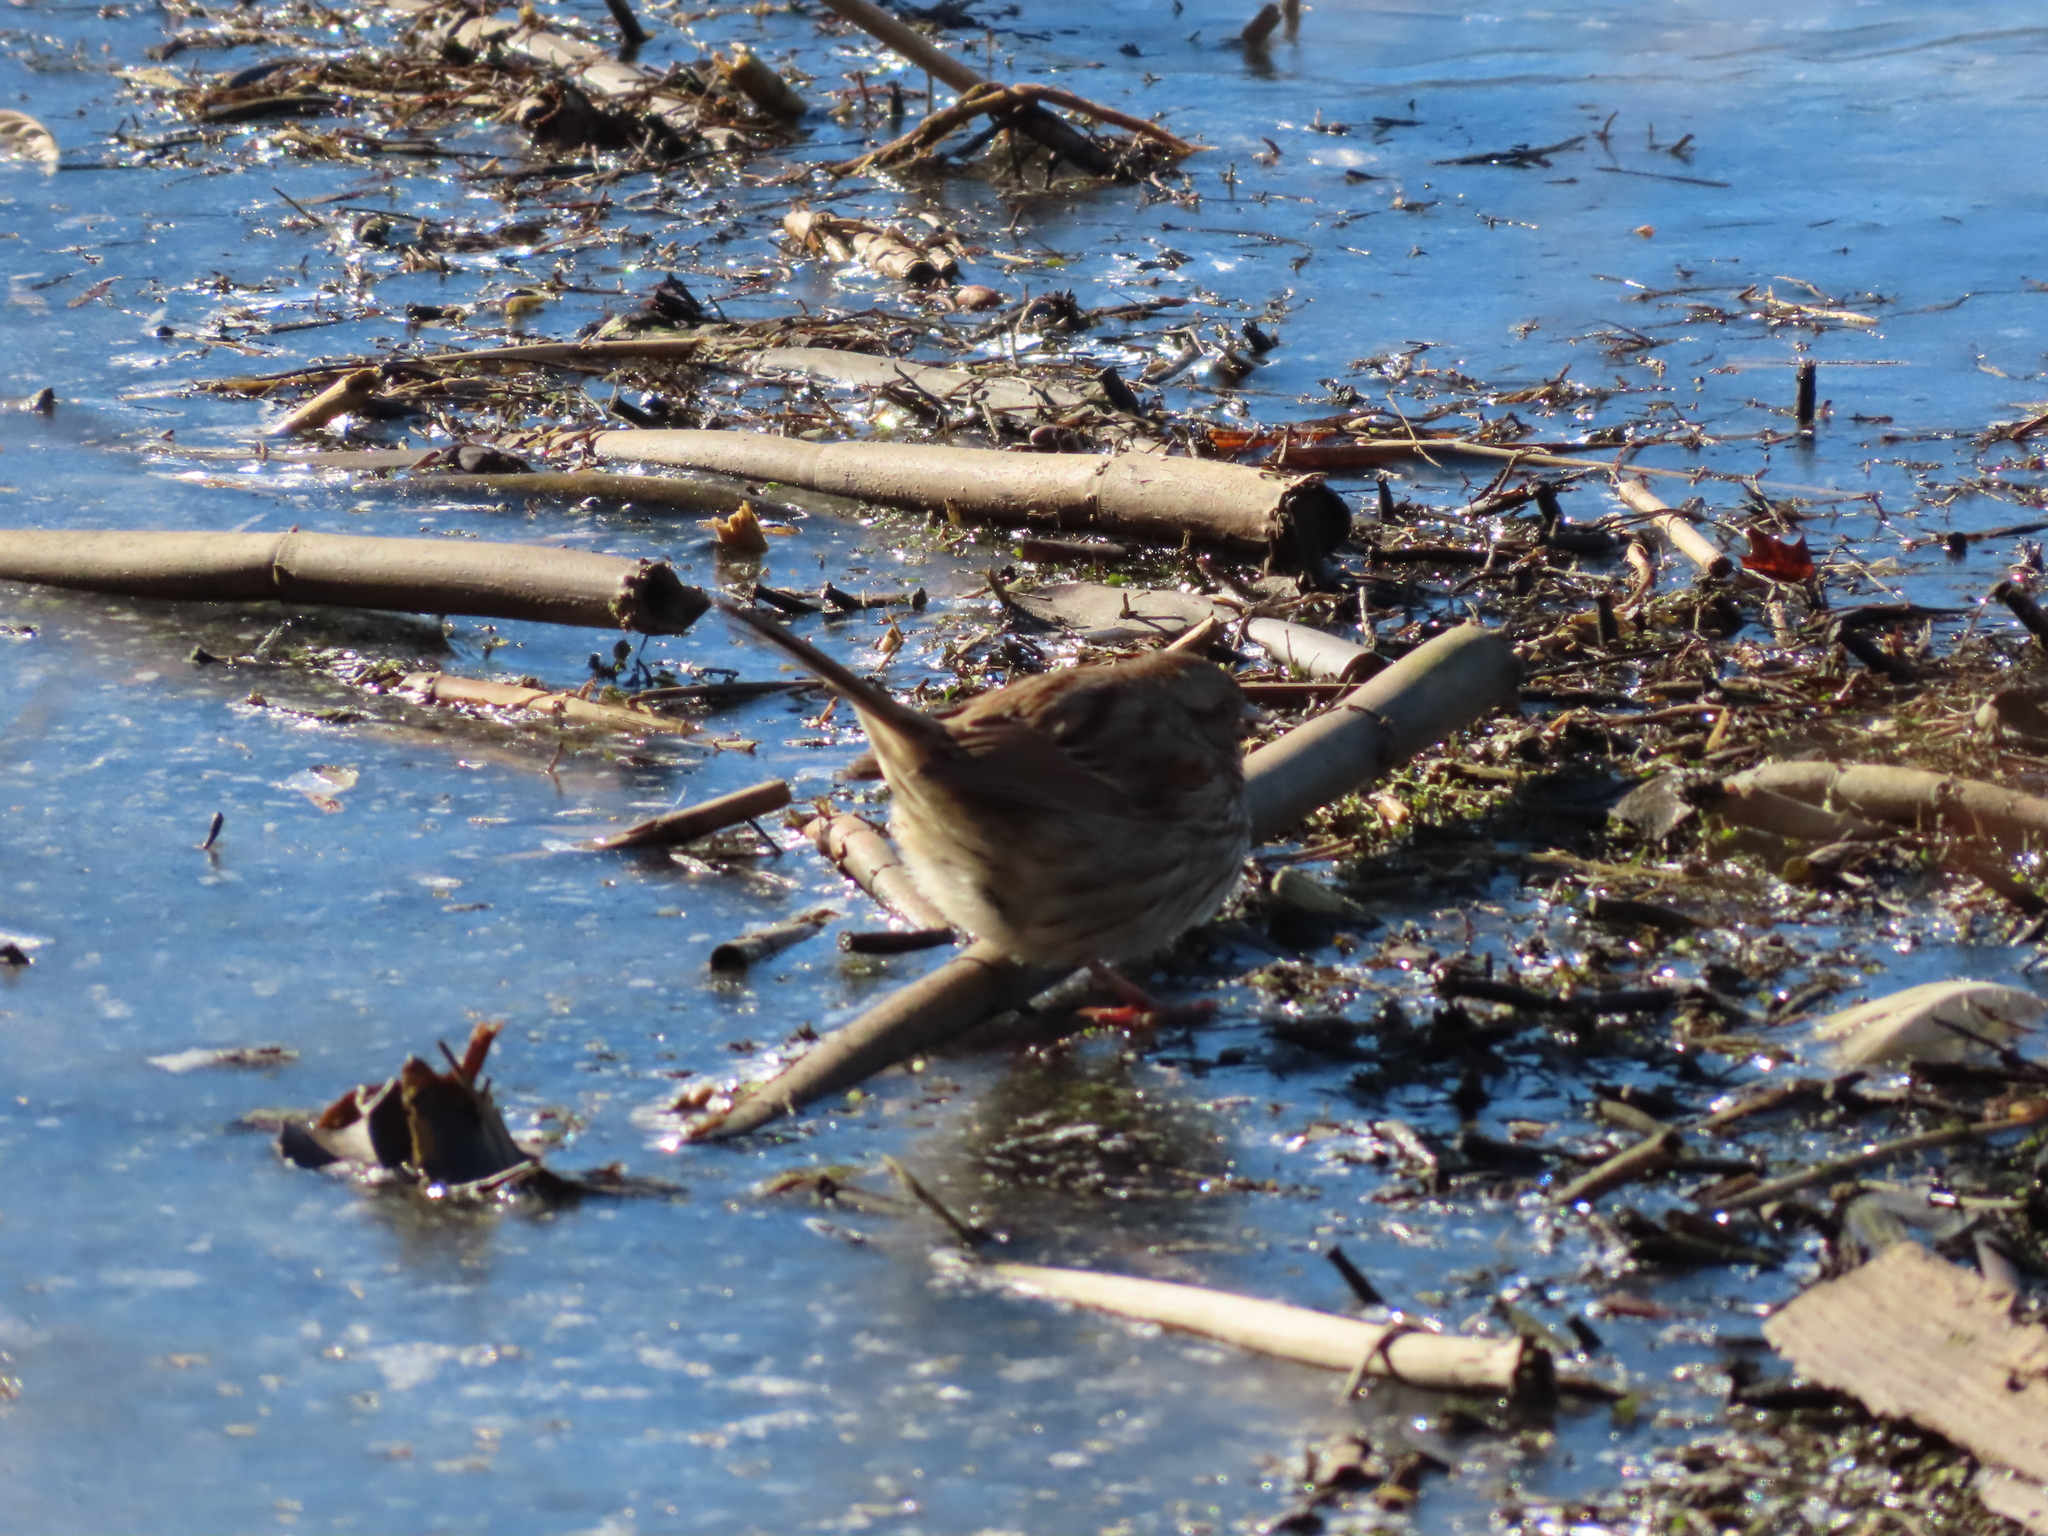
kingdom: Animalia
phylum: Chordata
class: Aves
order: Passeriformes
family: Passerellidae
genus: Melospiza
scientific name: Melospiza melodia
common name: Song sparrow
